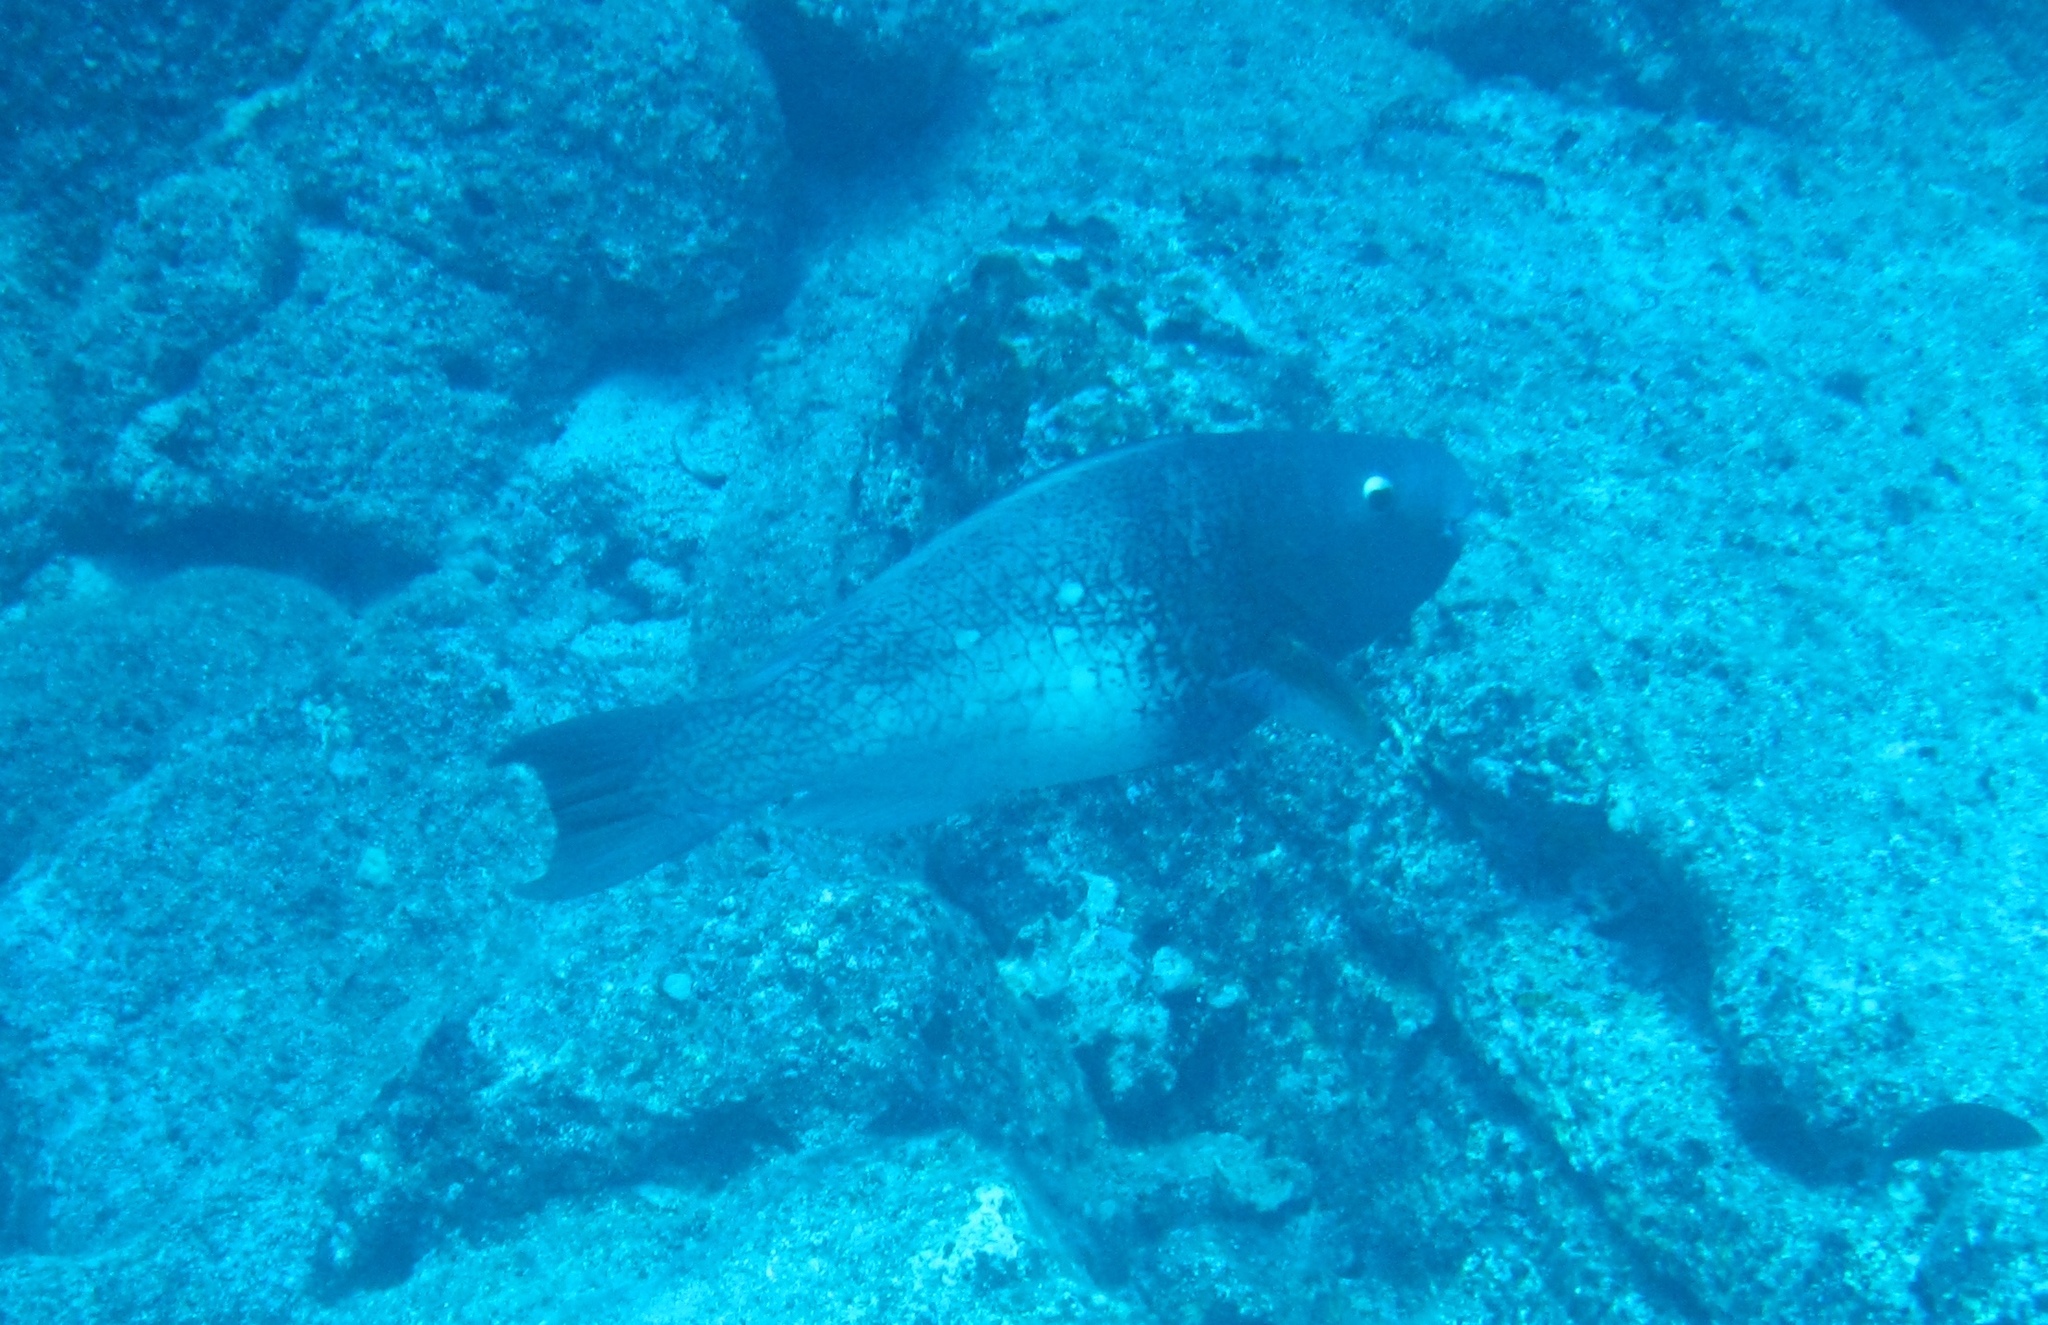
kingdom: Animalia
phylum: Chordata
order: Perciformes
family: Scaridae
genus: Scarus
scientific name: Scarus rubroviolaceus
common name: Ember parrotfish
